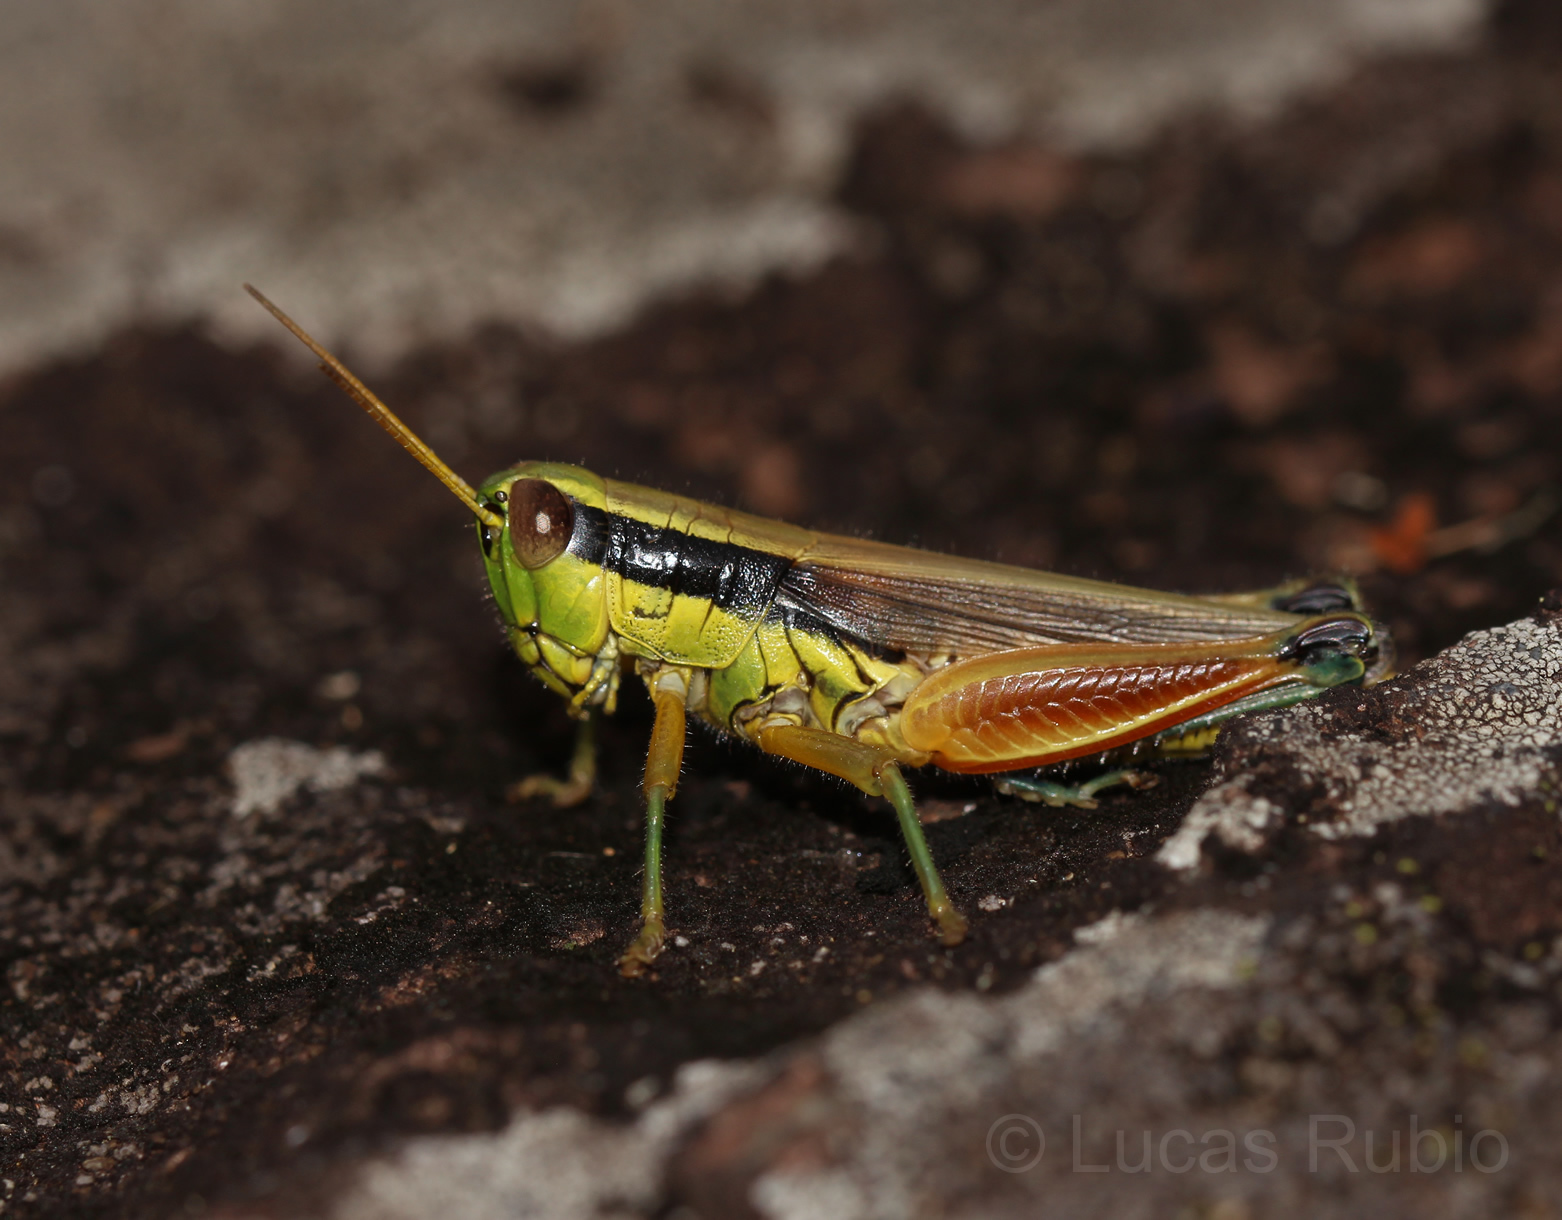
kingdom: Animalia
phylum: Arthropoda
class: Insecta
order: Orthoptera
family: Acrididae
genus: Scotussa
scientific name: Scotussa impudica
